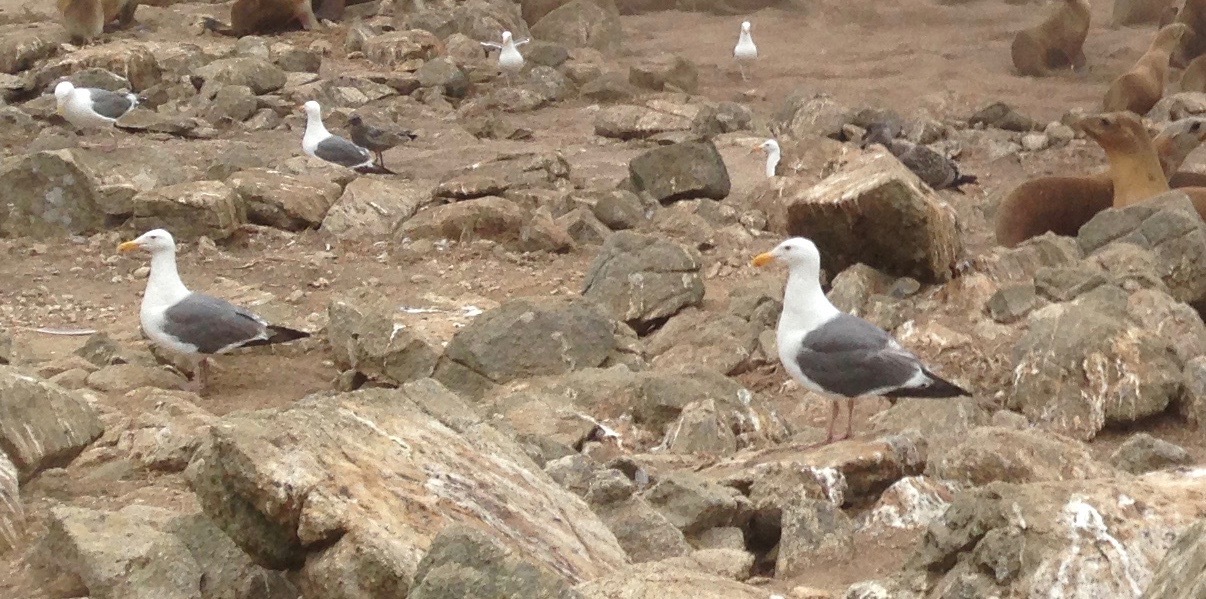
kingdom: Animalia
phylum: Chordata
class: Aves
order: Charadriiformes
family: Laridae
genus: Larus
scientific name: Larus occidentalis
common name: Western gull
